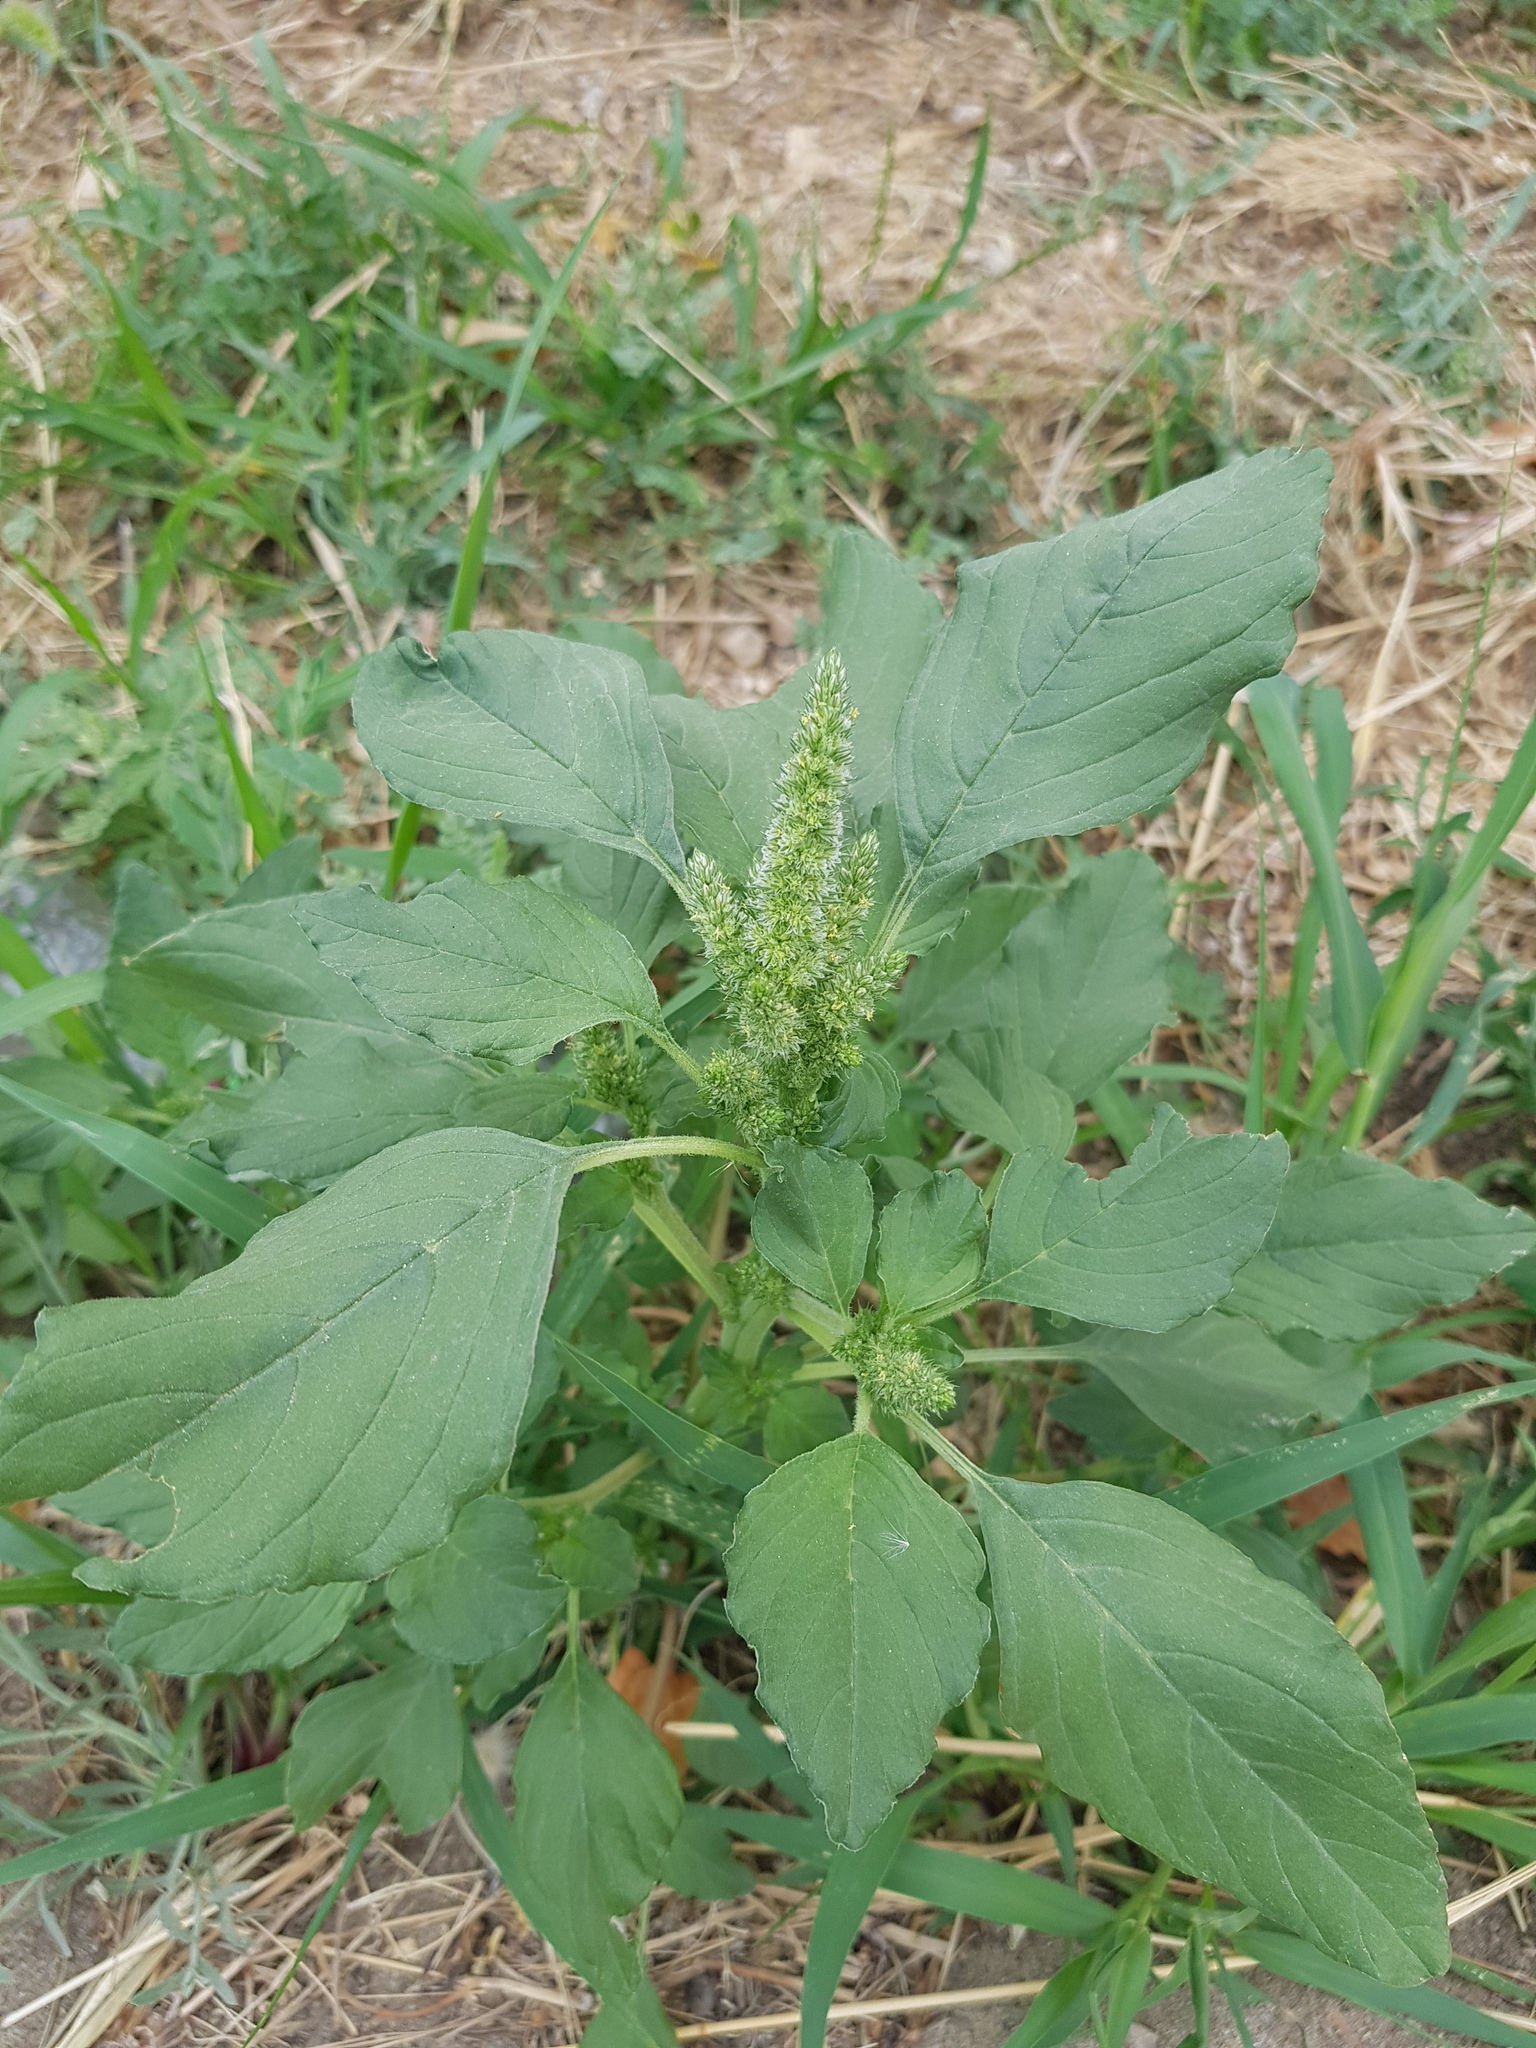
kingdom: Plantae
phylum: Tracheophyta
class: Magnoliopsida
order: Caryophyllales
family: Amaranthaceae
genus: Amaranthus
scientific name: Amaranthus retroflexus
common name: Redroot amaranth
